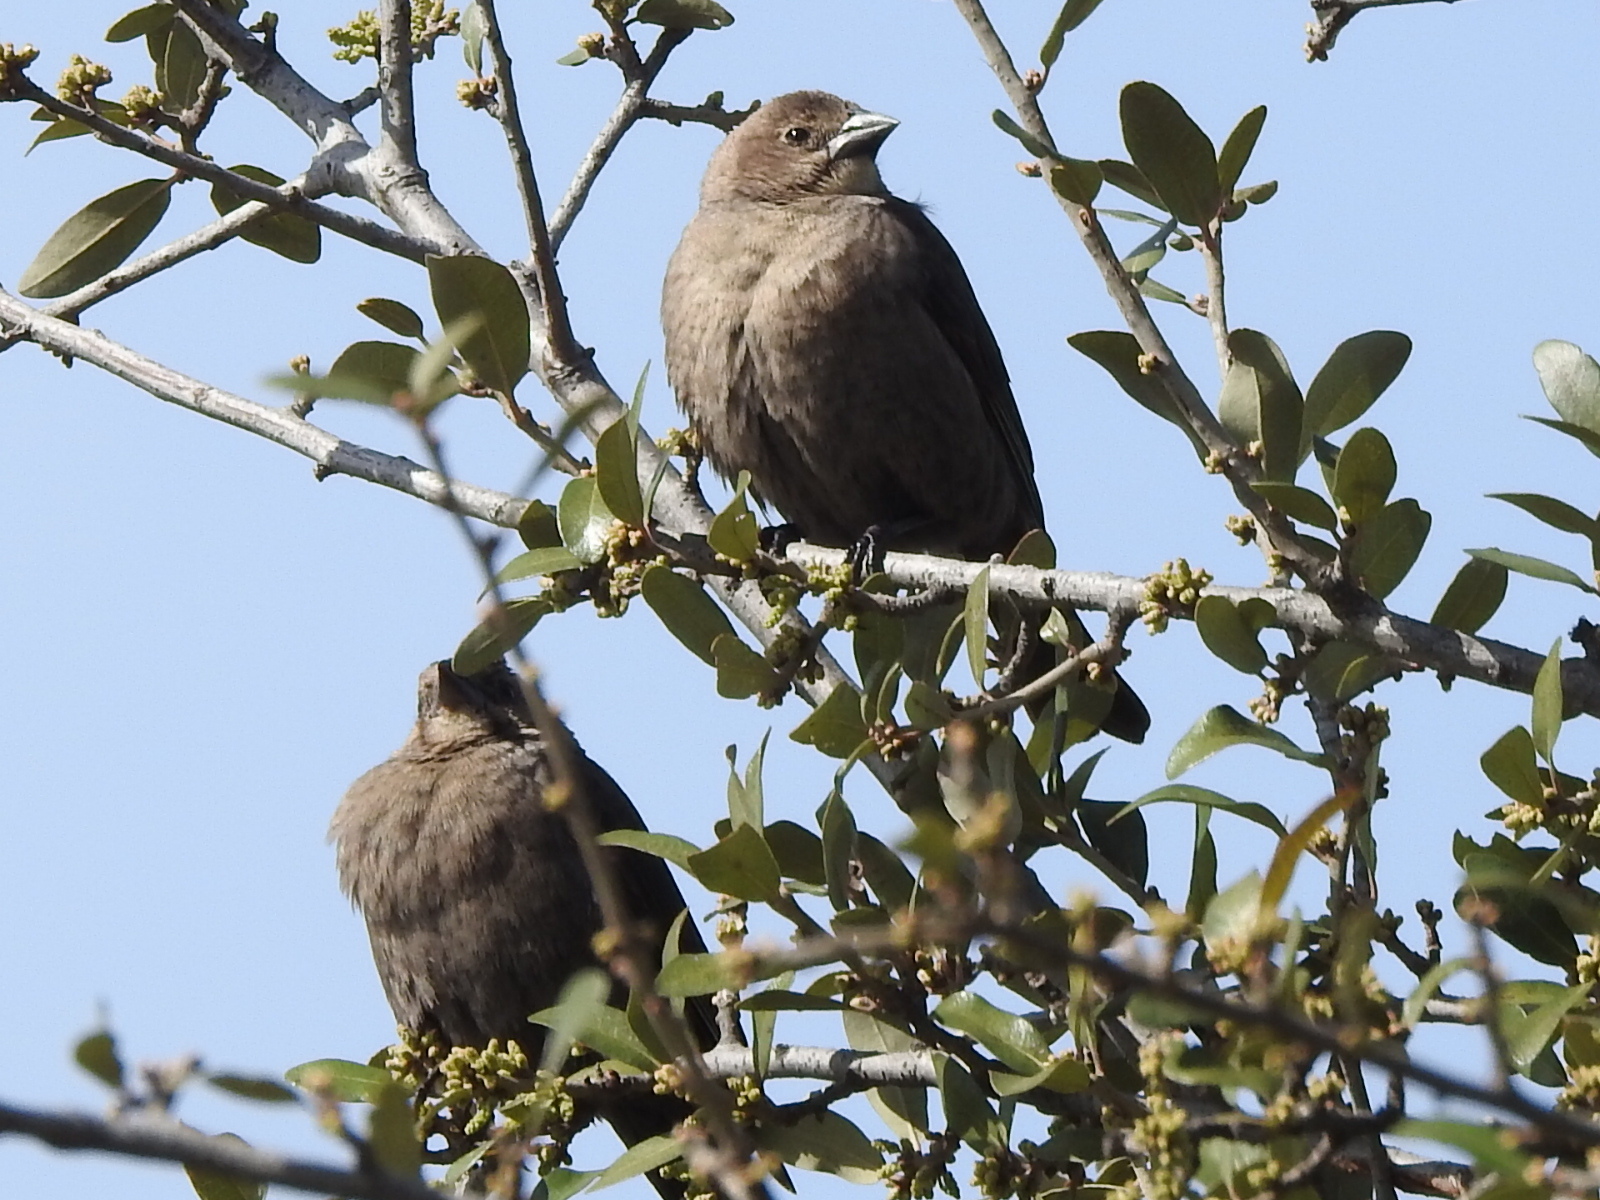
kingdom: Animalia
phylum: Chordata
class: Aves
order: Passeriformes
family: Icteridae
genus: Molothrus
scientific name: Molothrus ater
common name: Brown-headed cowbird
